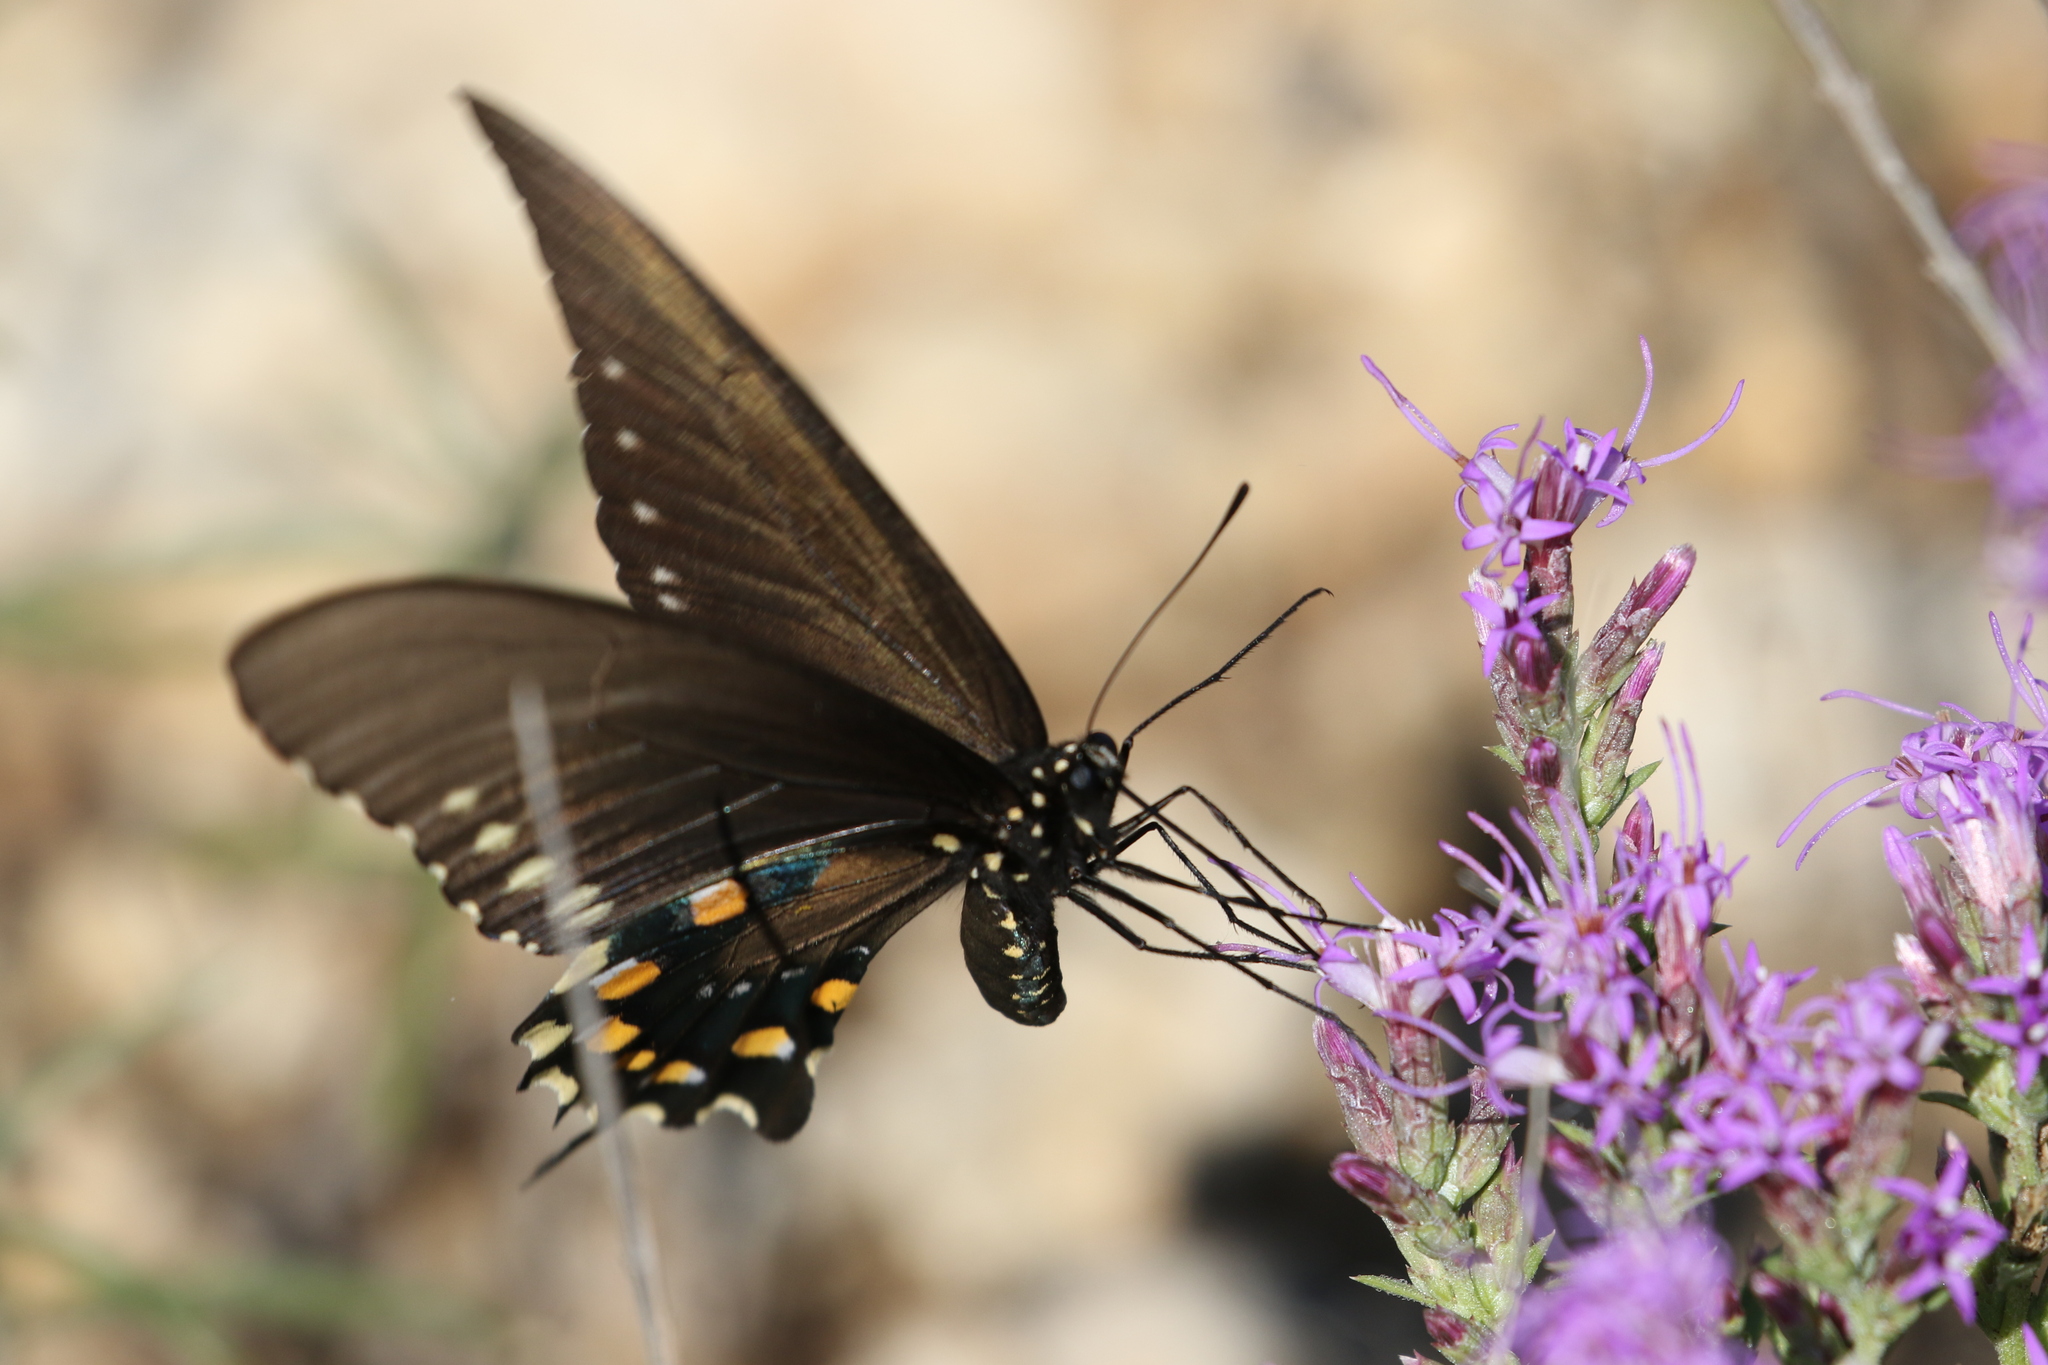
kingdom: Animalia
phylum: Arthropoda
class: Insecta
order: Lepidoptera
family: Papilionidae
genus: Battus
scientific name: Battus philenor
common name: Pipevine swallowtail
